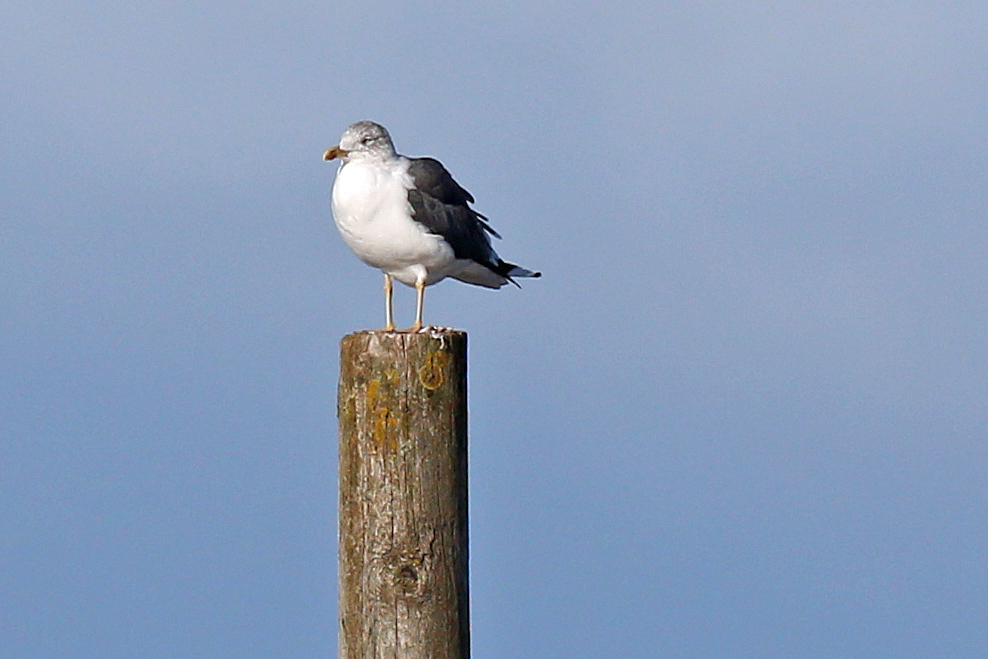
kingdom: Animalia
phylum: Chordata
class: Aves
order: Charadriiformes
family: Laridae
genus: Larus
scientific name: Larus fuscus
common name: Lesser black-backed gull
